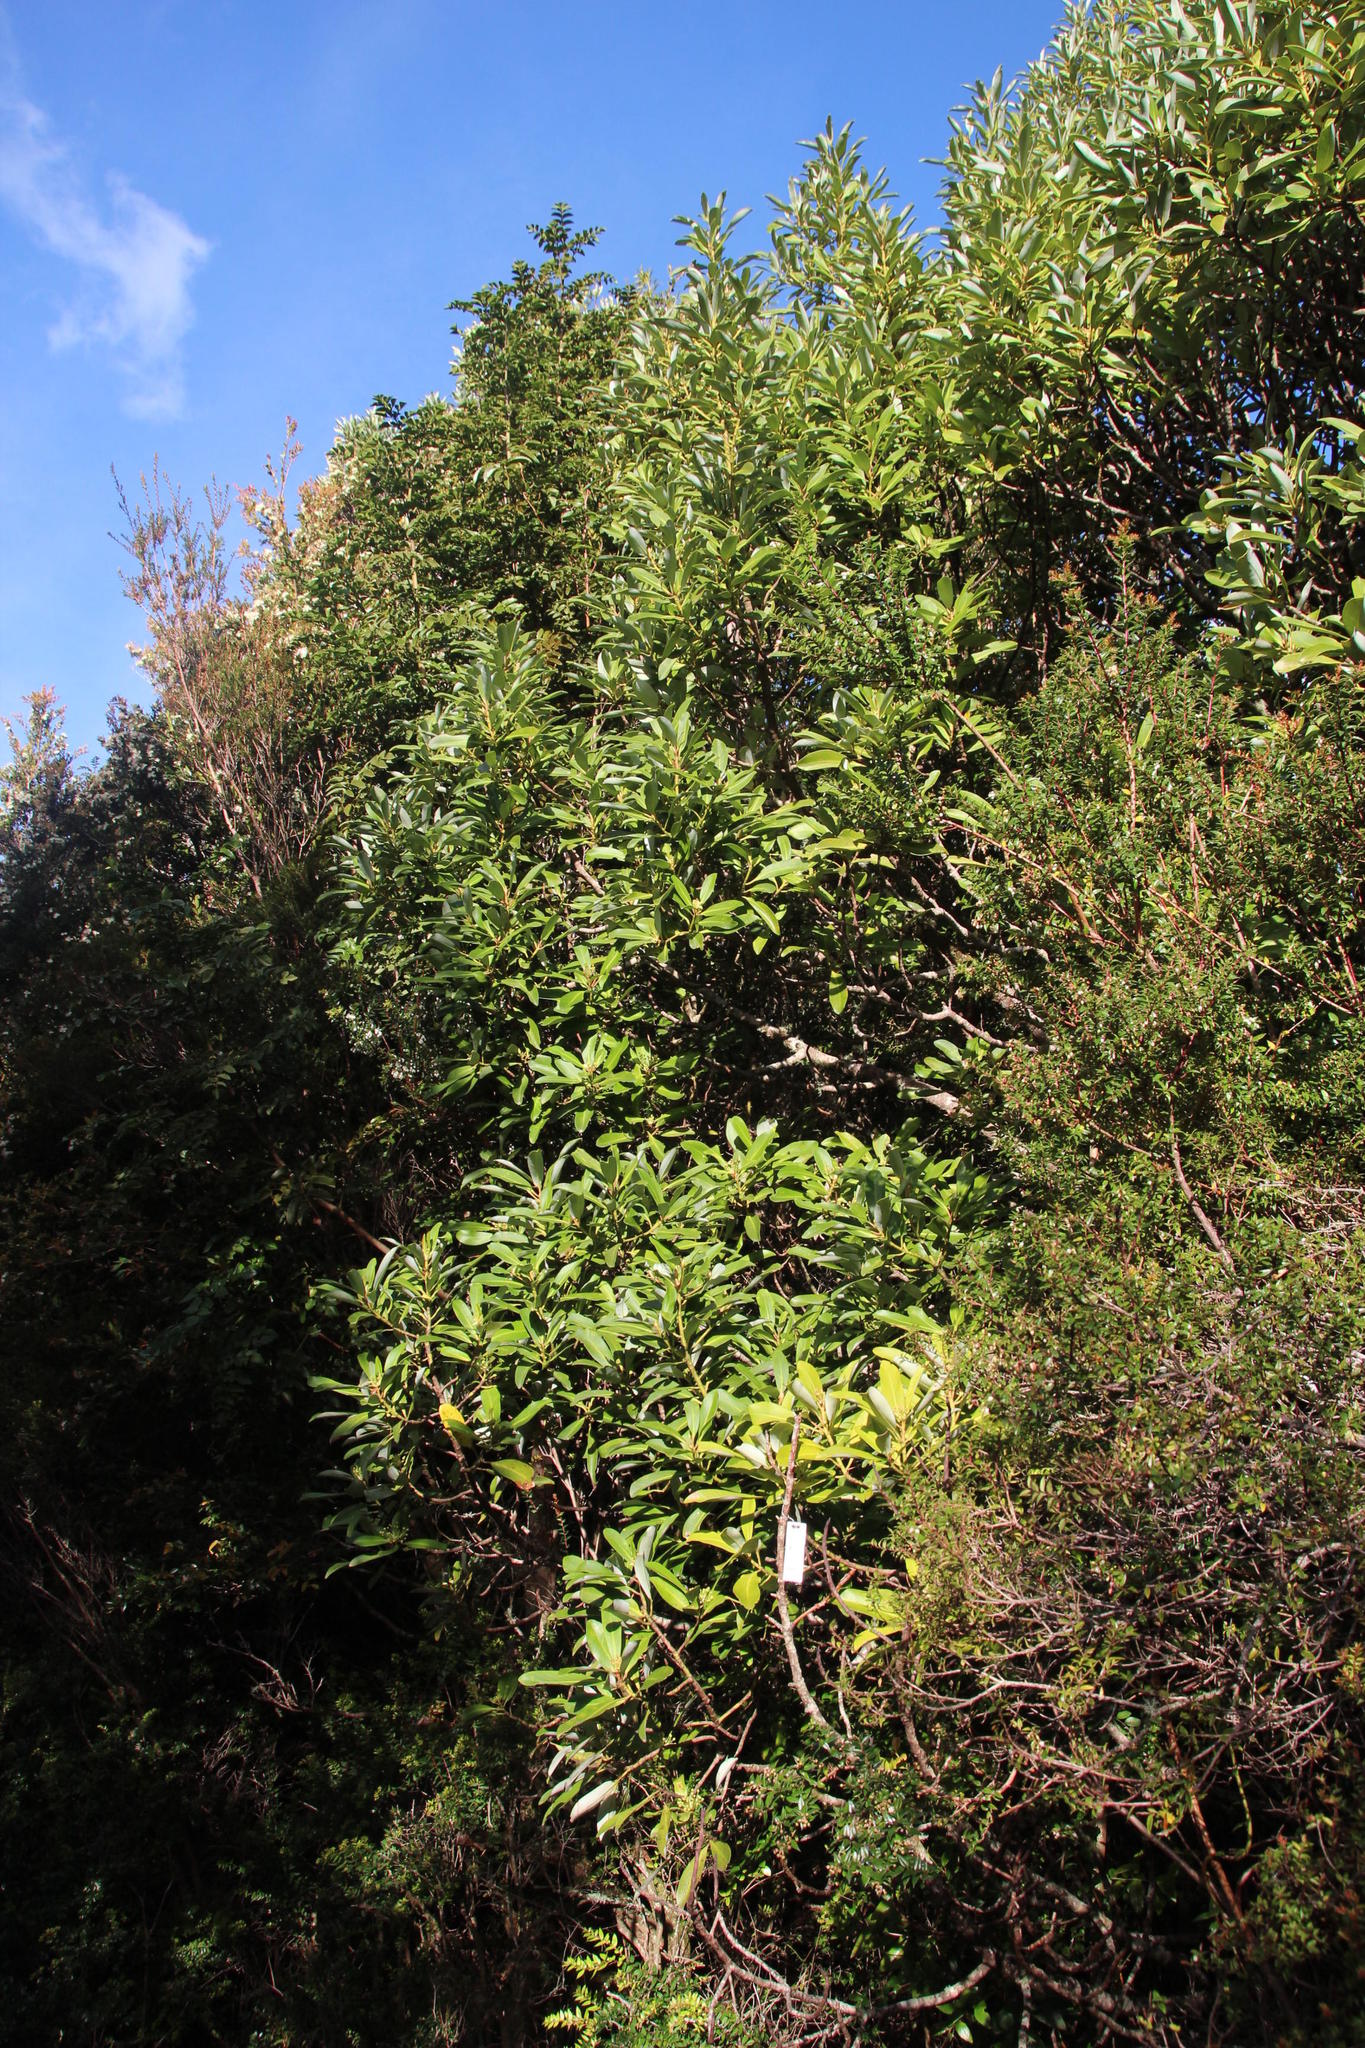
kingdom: Plantae
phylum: Tracheophyta
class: Magnoliopsida
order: Canellales
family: Winteraceae
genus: Drimys
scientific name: Drimys winteri
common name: Winter's-bark
